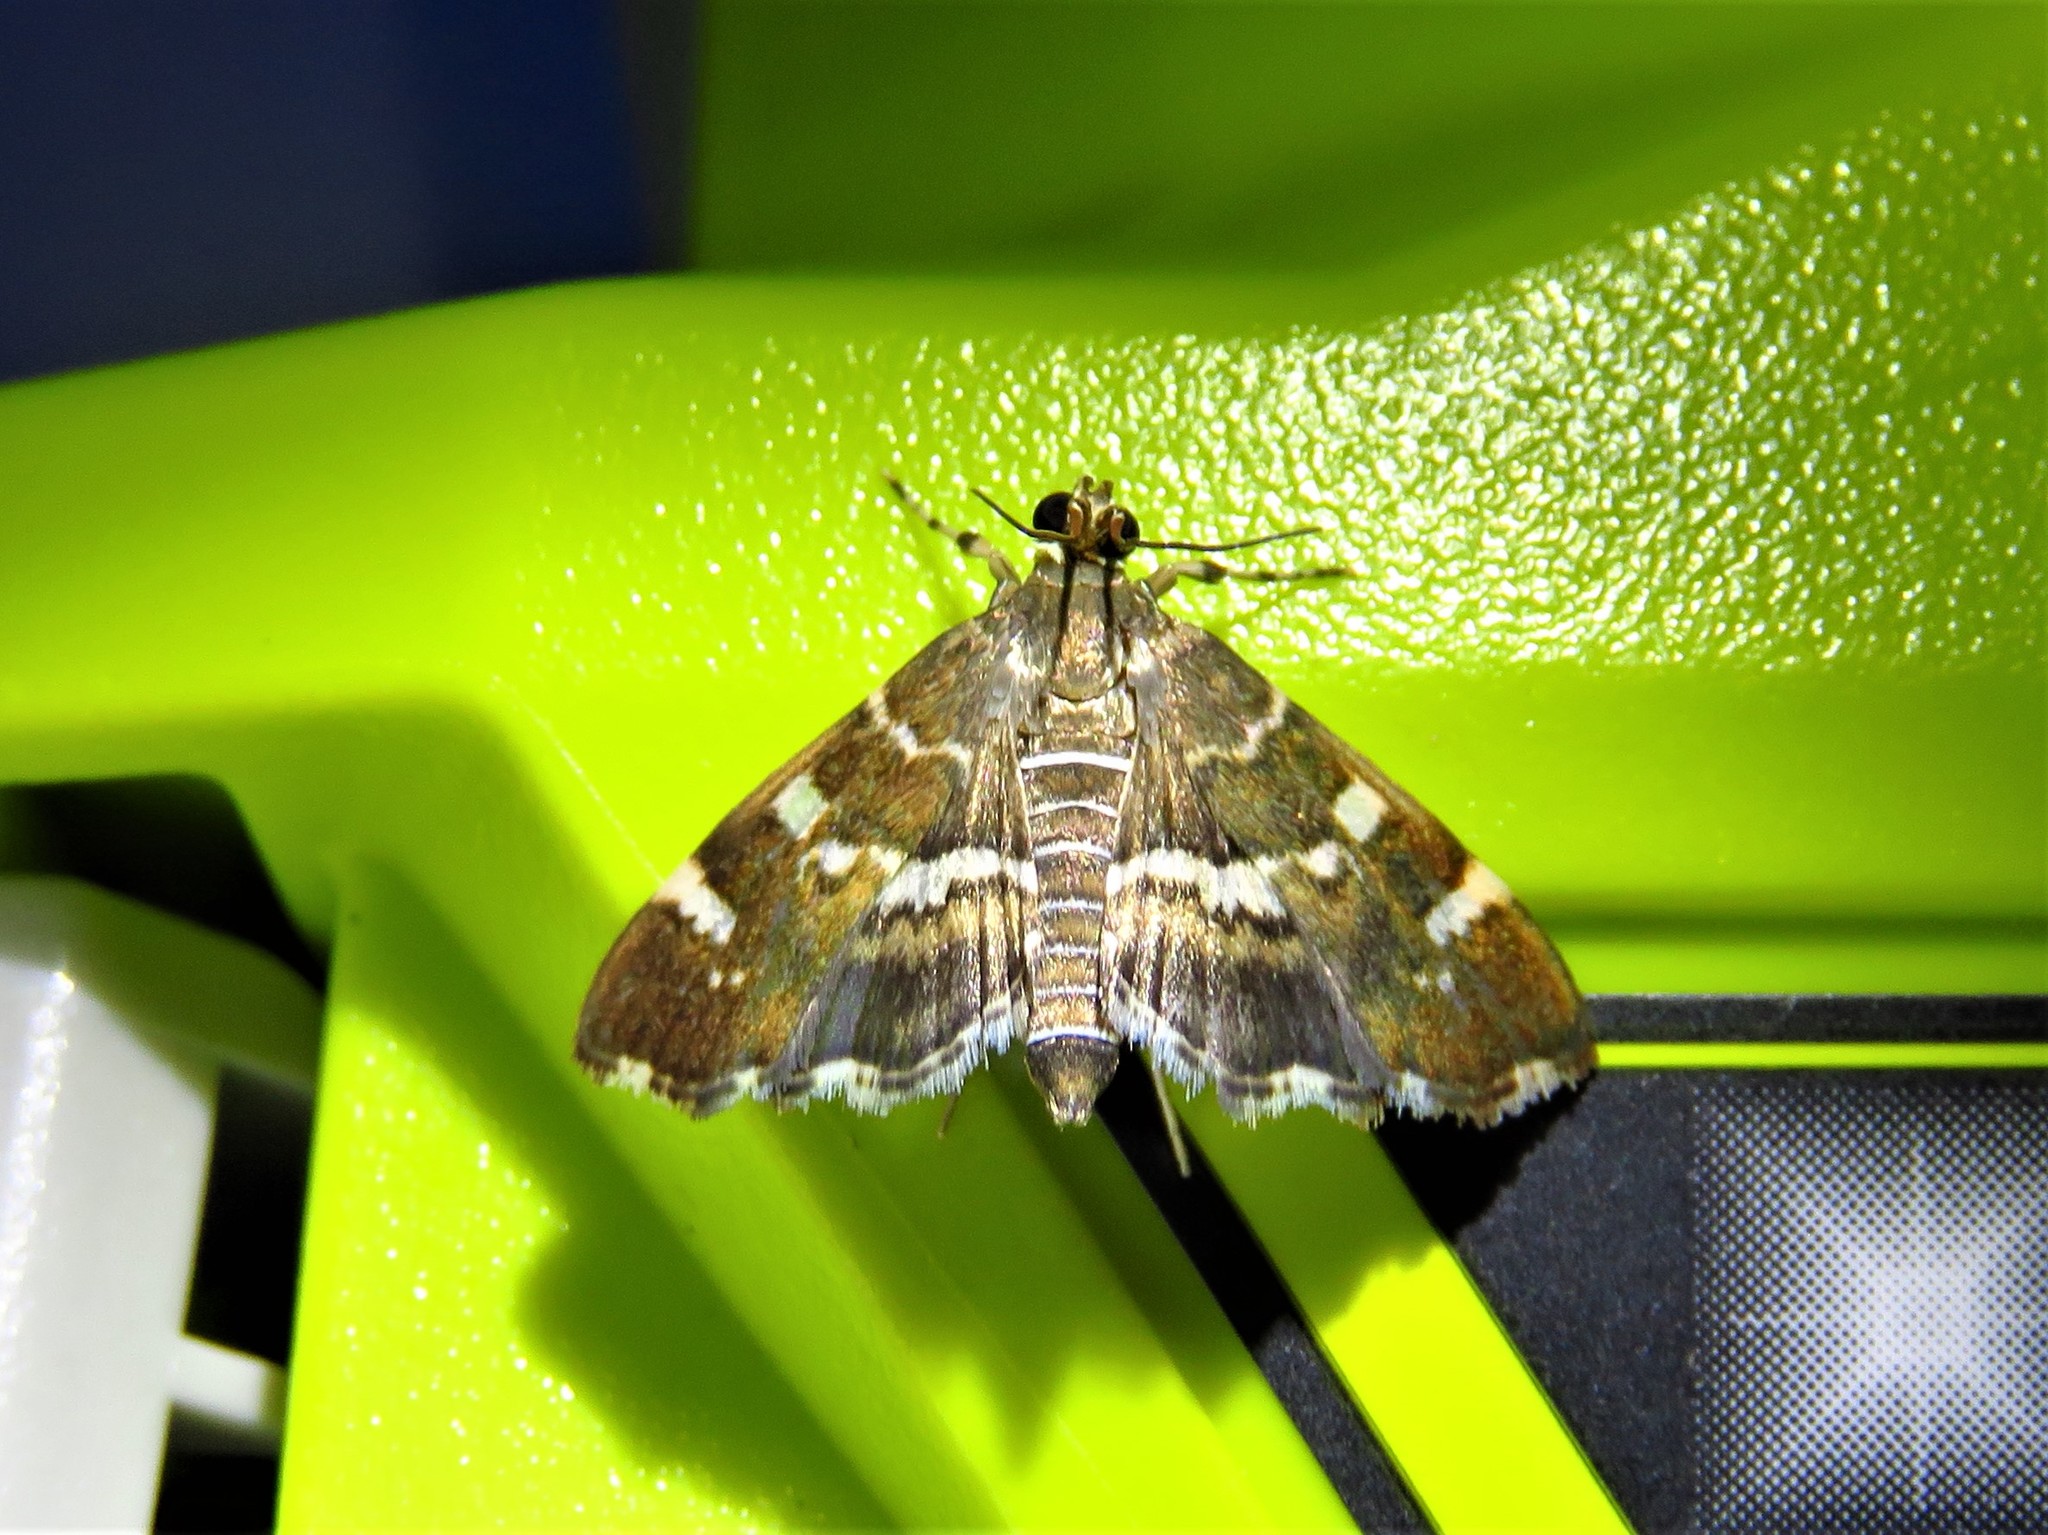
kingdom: Animalia
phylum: Arthropoda
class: Insecta
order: Lepidoptera
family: Crambidae
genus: Hymenia
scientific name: Hymenia perspectalis
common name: Spotted beet webworm
